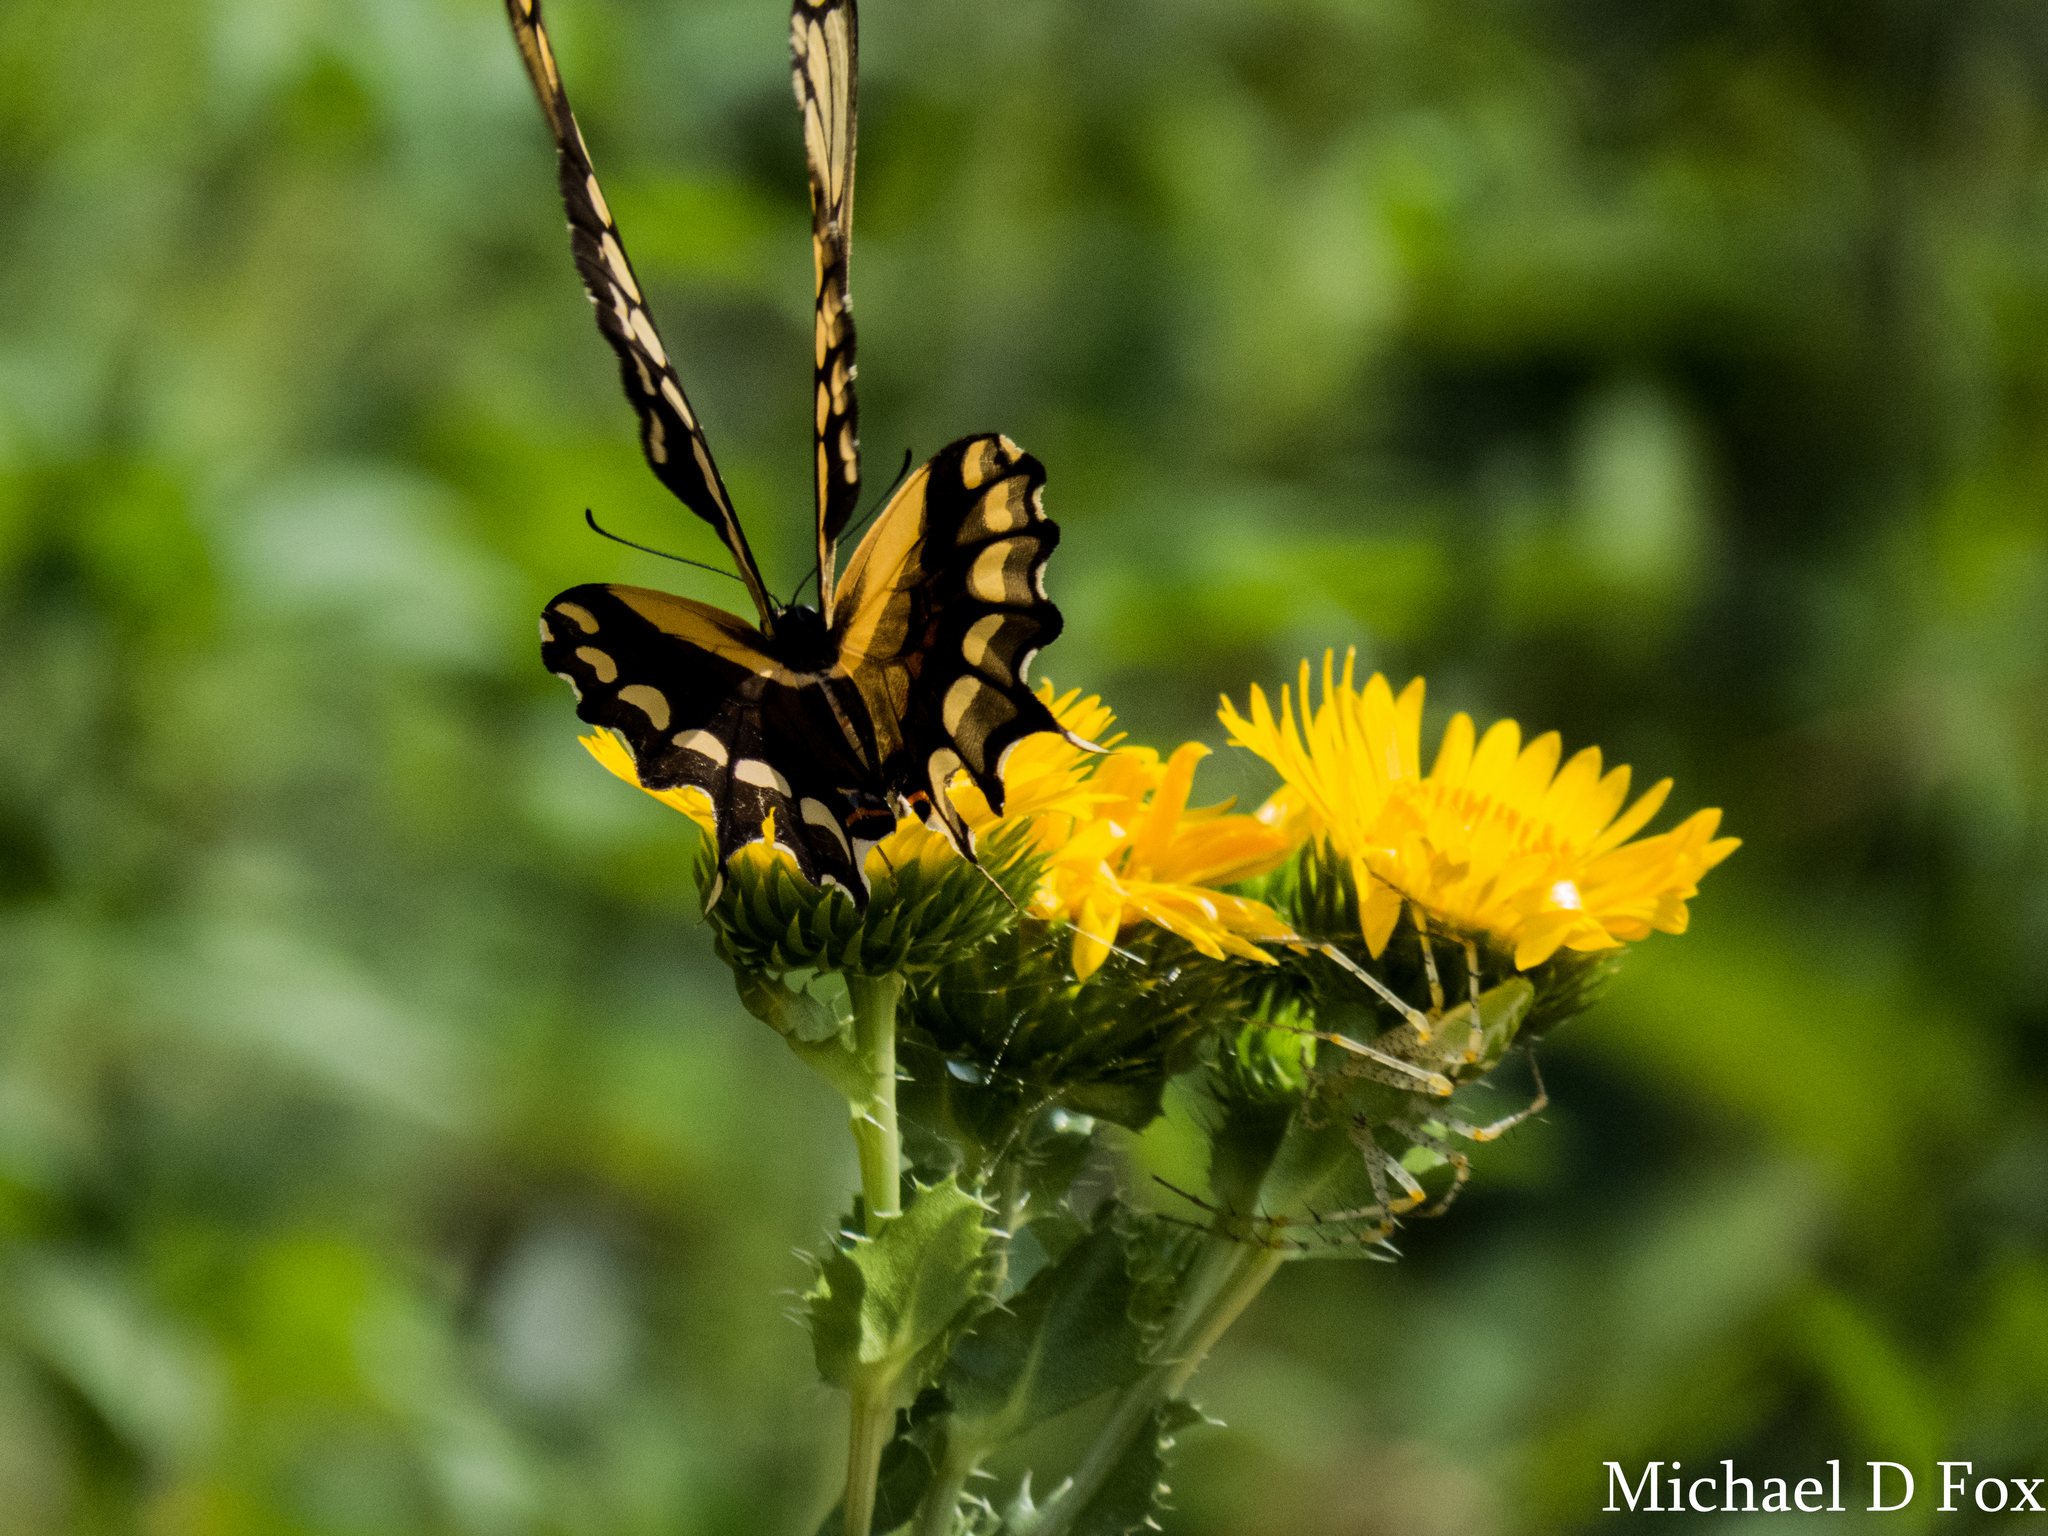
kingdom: Animalia
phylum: Arthropoda
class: Insecta
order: Lepidoptera
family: Papilionidae
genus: Papilio
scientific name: Papilio cresphontes
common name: Giant swallowtail
